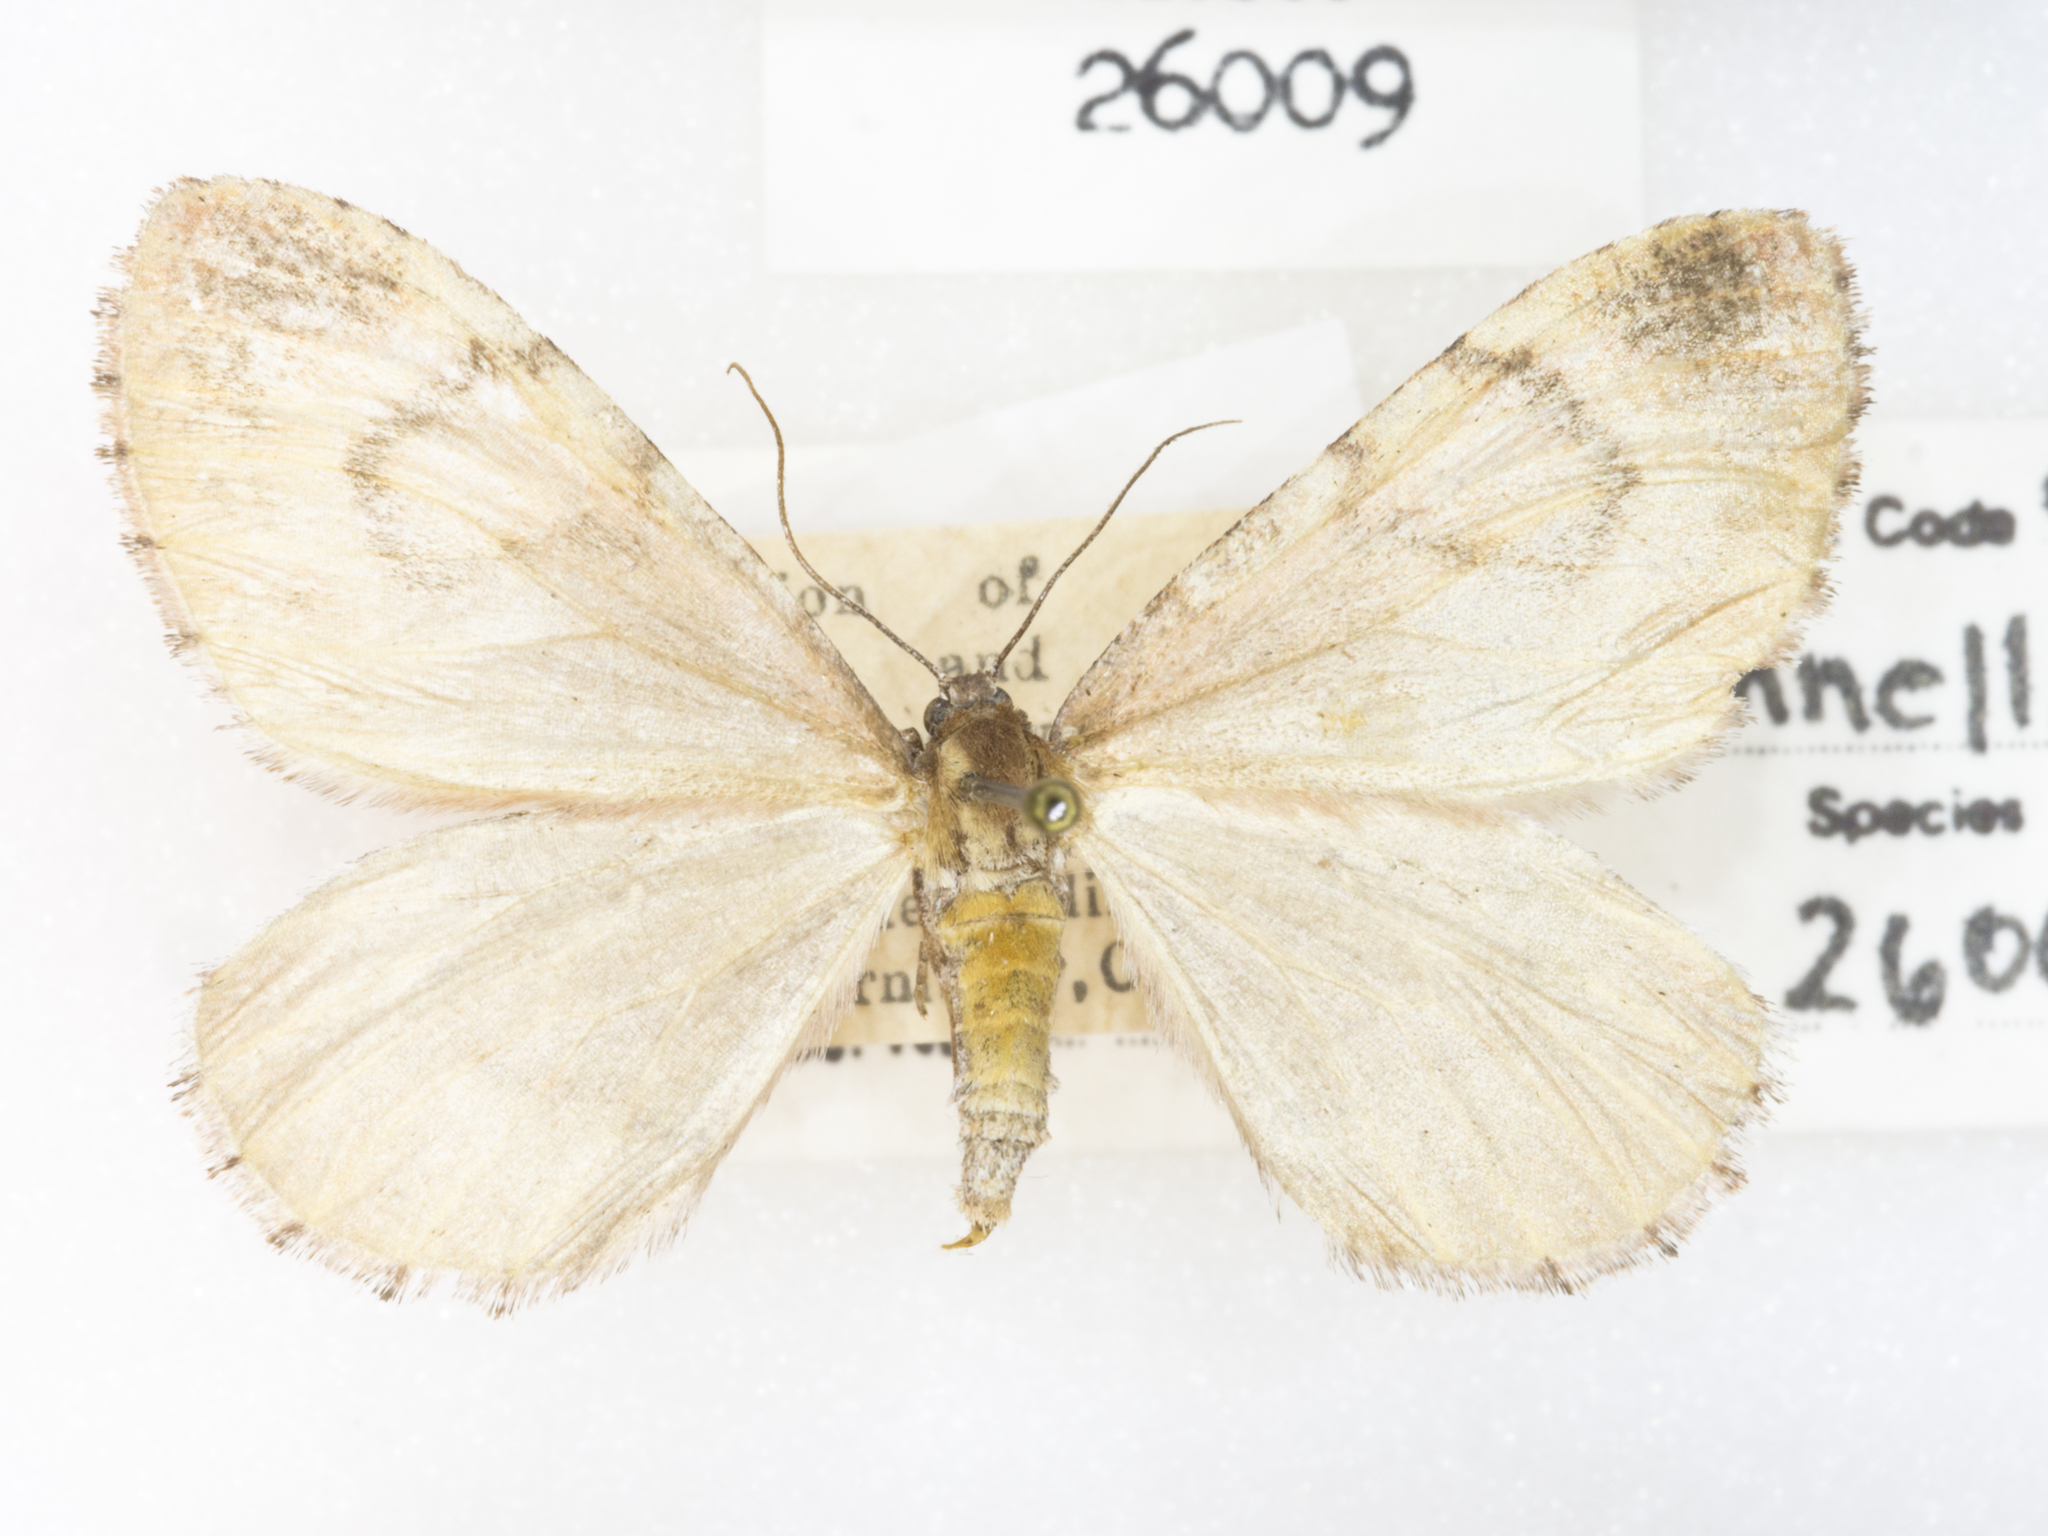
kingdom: Animalia
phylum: Arthropoda
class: Insecta
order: Lepidoptera
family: Geometridae
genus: Stamnodes
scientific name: Stamnodes annellata
